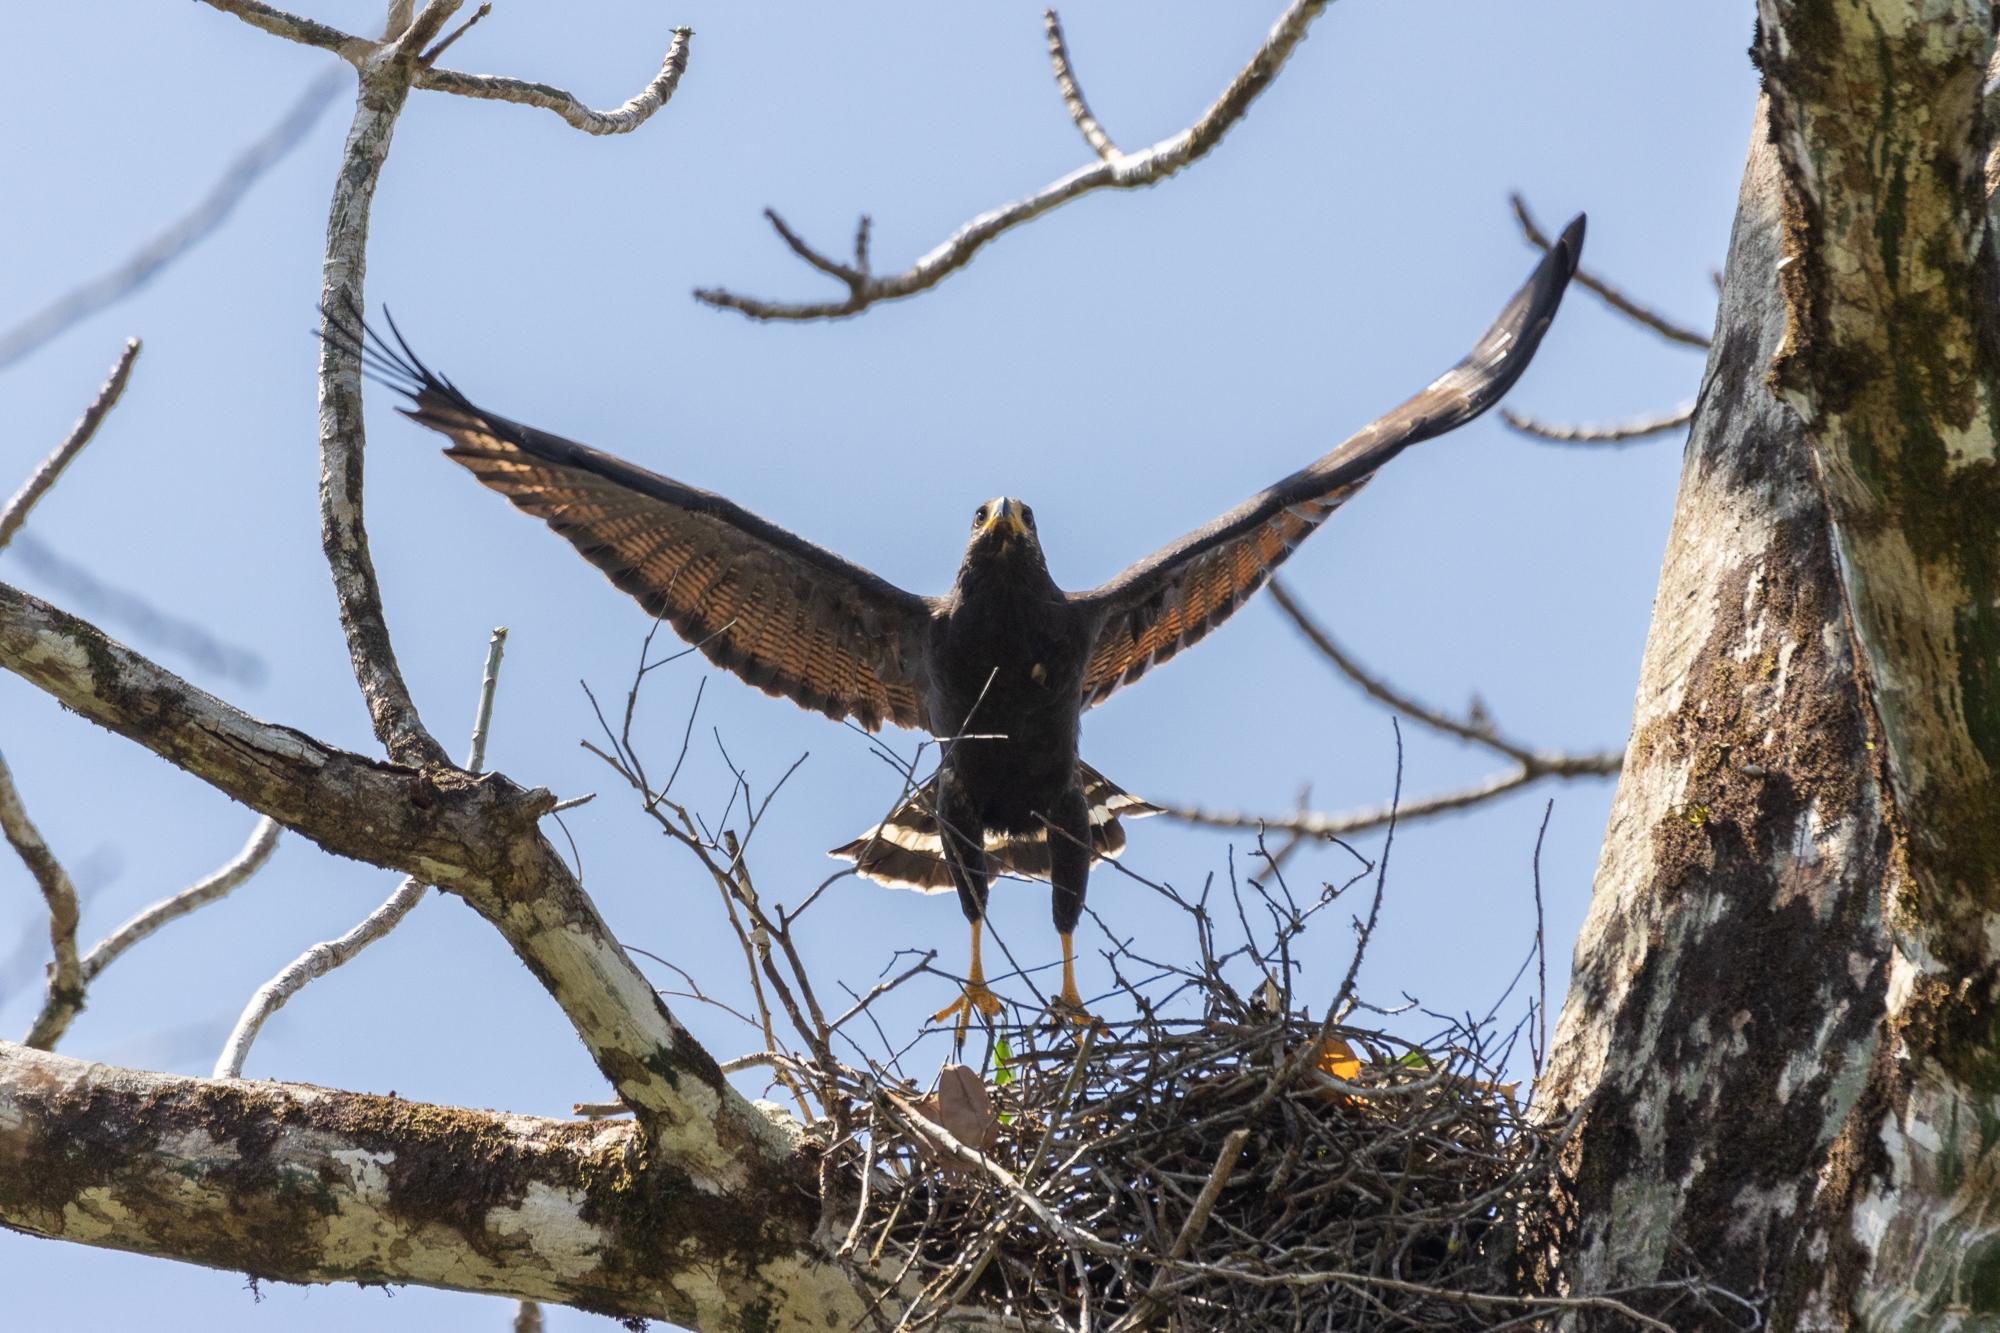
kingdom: Animalia
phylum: Chordata
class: Aves
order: Accipitriformes
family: Accipitridae
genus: Buteogallus
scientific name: Buteogallus anthracinus
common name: Common black hawk
